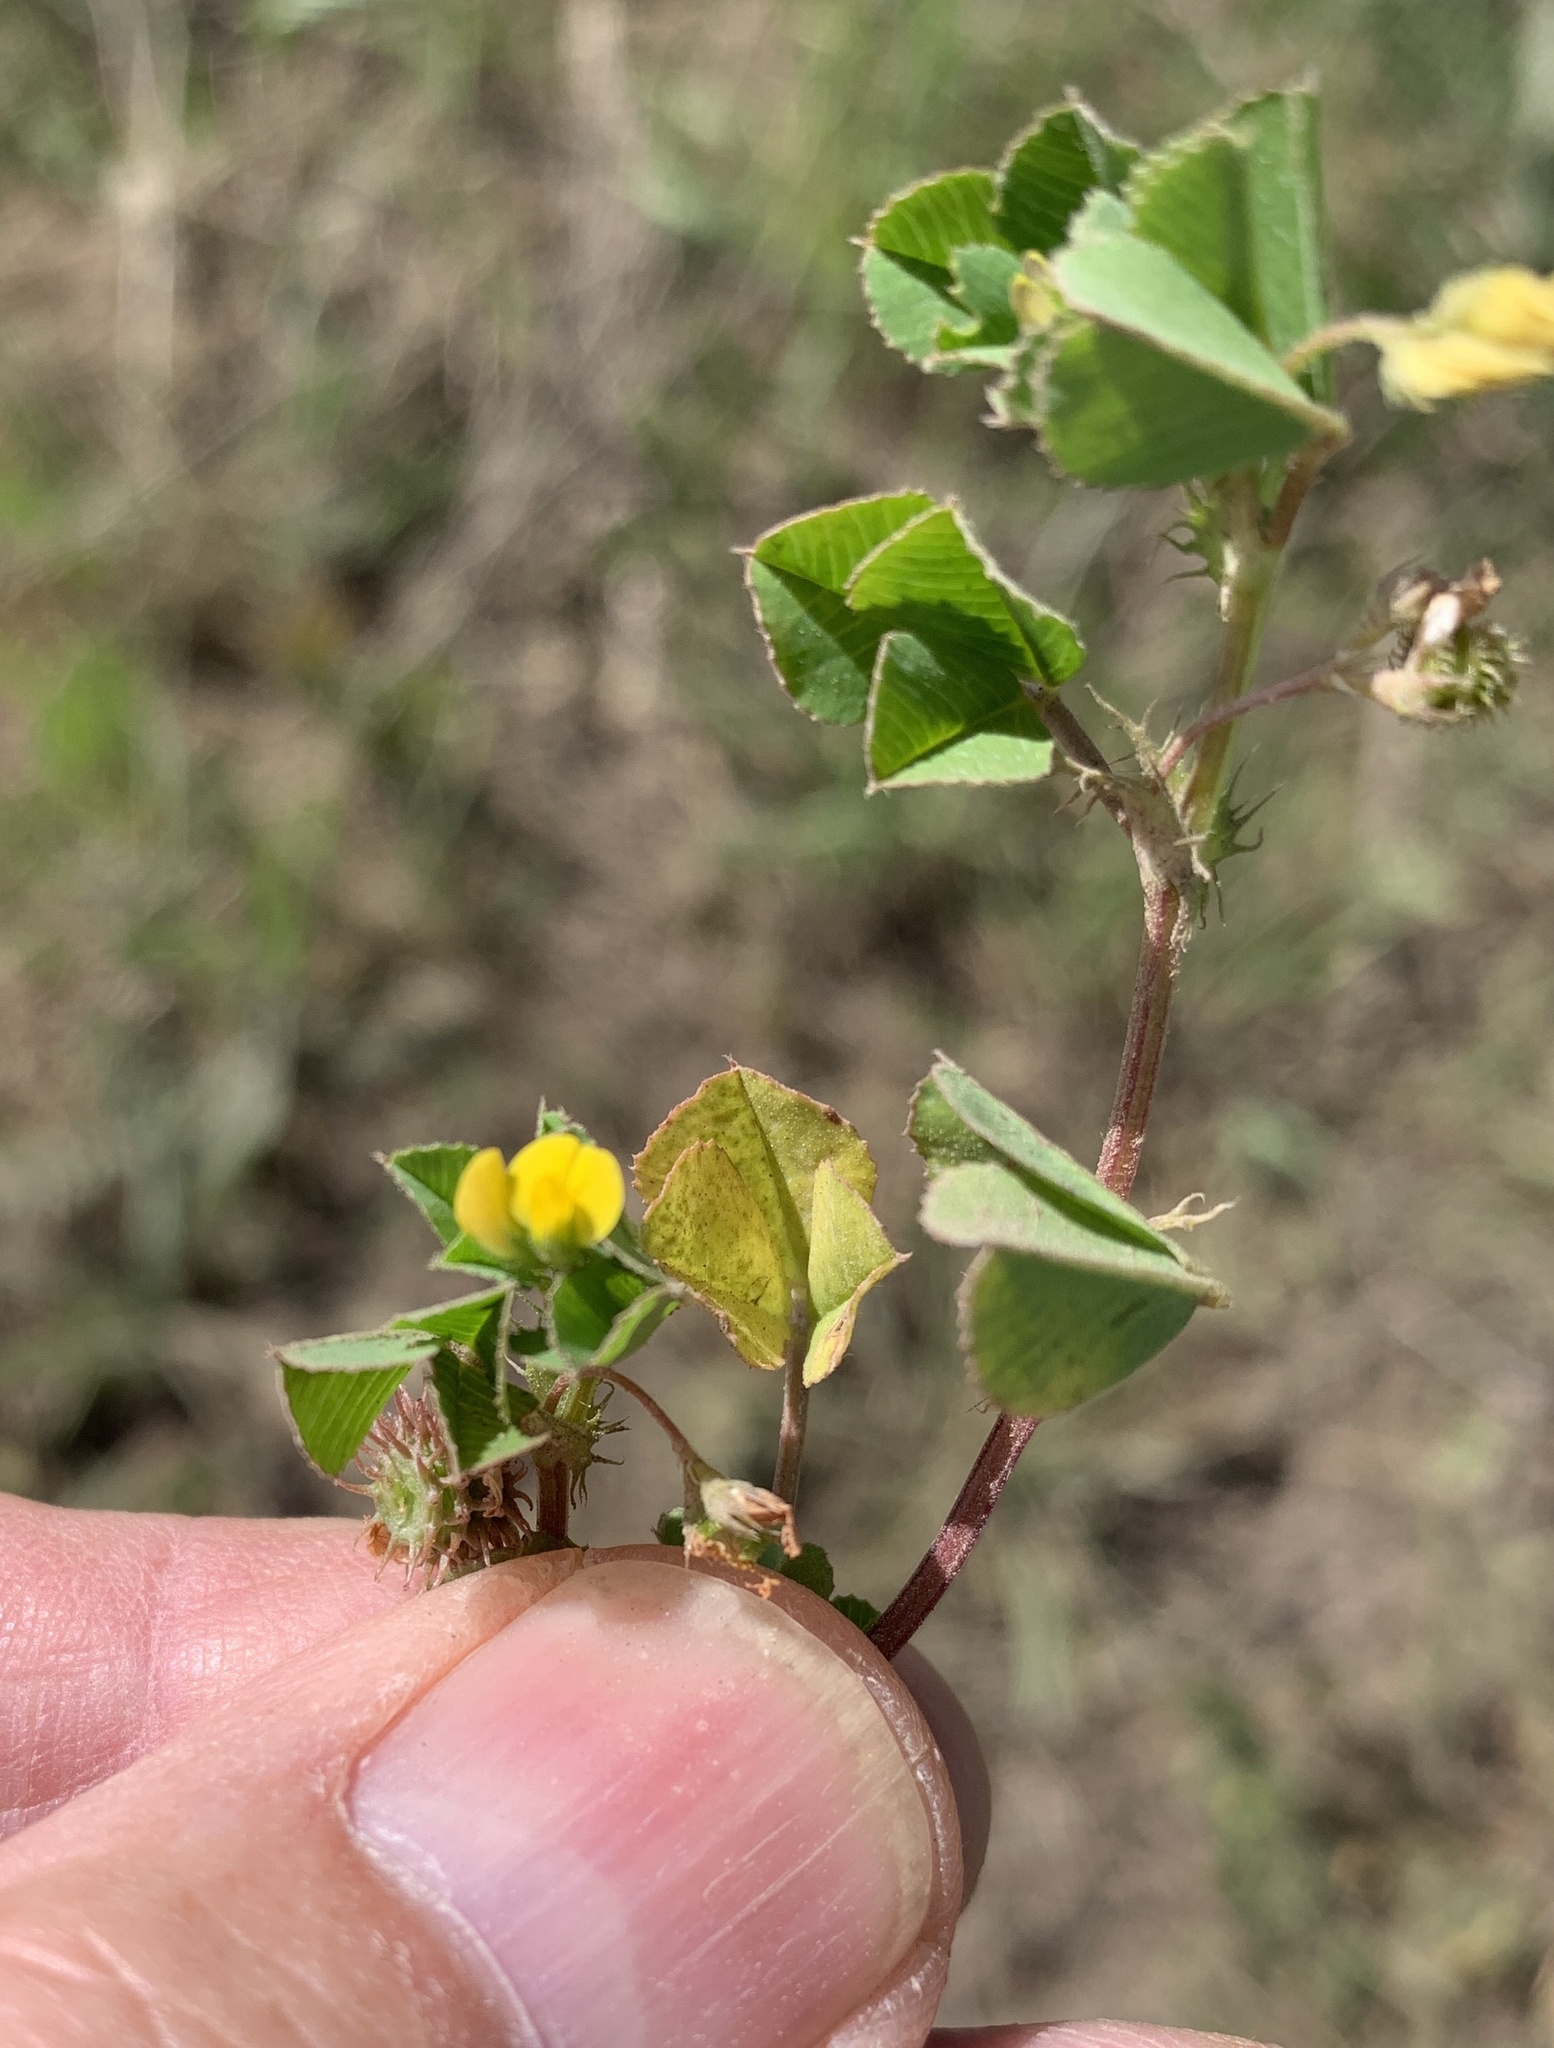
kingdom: Plantae
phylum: Tracheophyta
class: Magnoliopsida
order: Fabales
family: Fabaceae
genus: Medicago
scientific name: Medicago polymorpha
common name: Burclover
